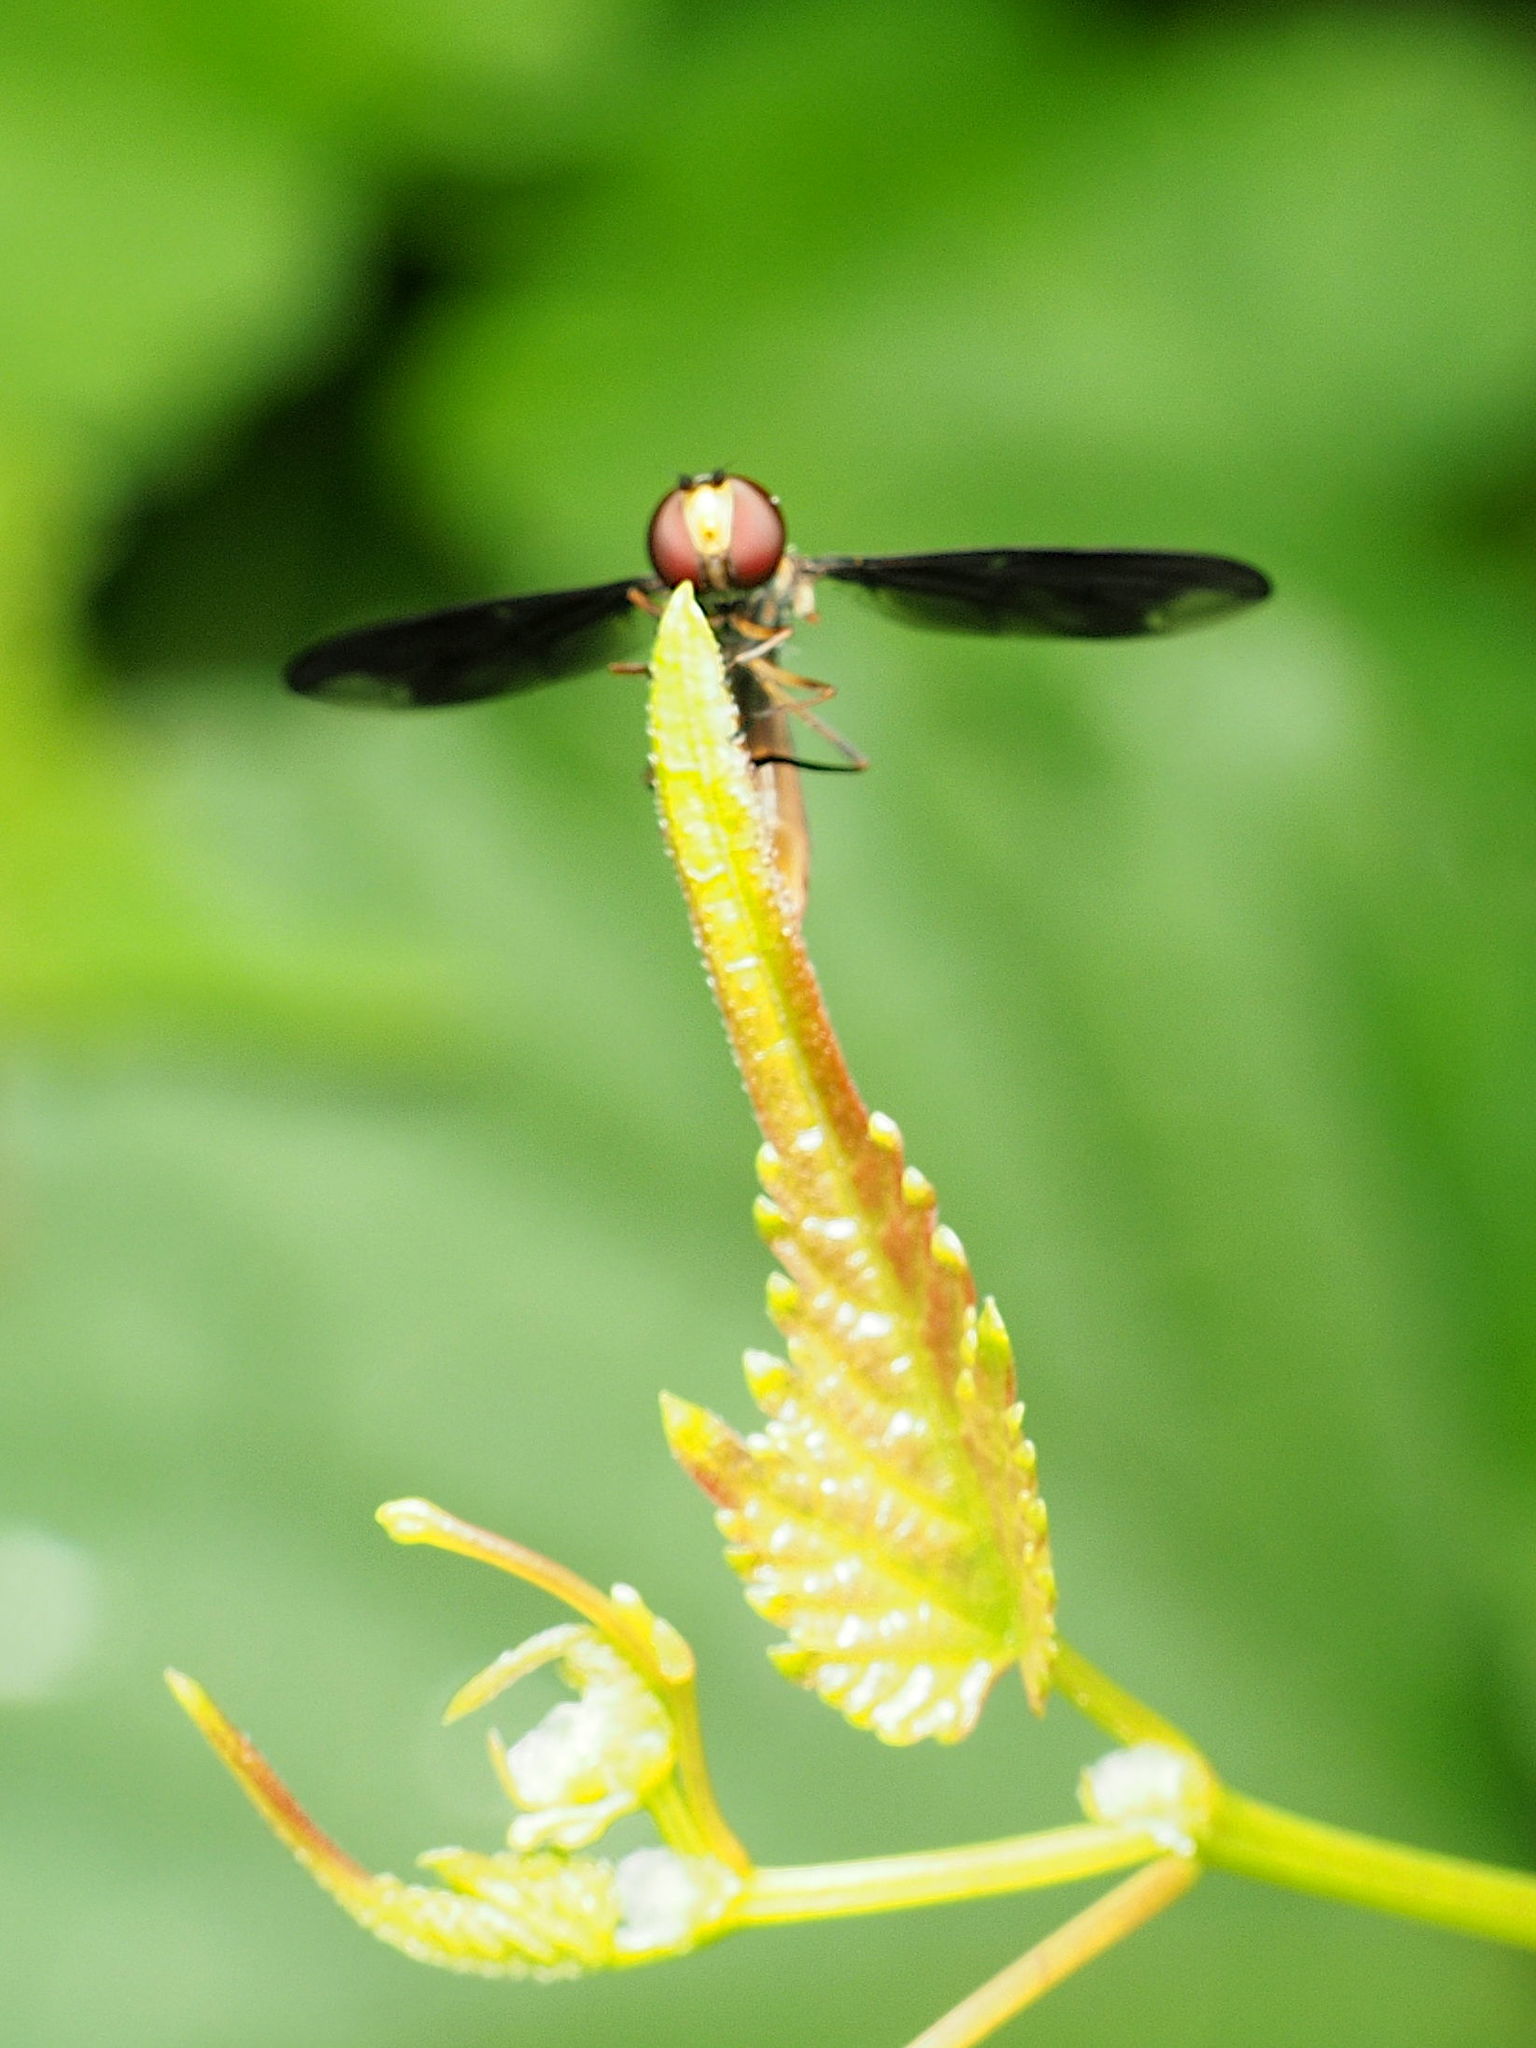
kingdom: Animalia
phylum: Arthropoda
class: Insecta
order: Diptera
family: Syrphidae
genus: Ocyptamus
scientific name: Ocyptamus fuscipennis
